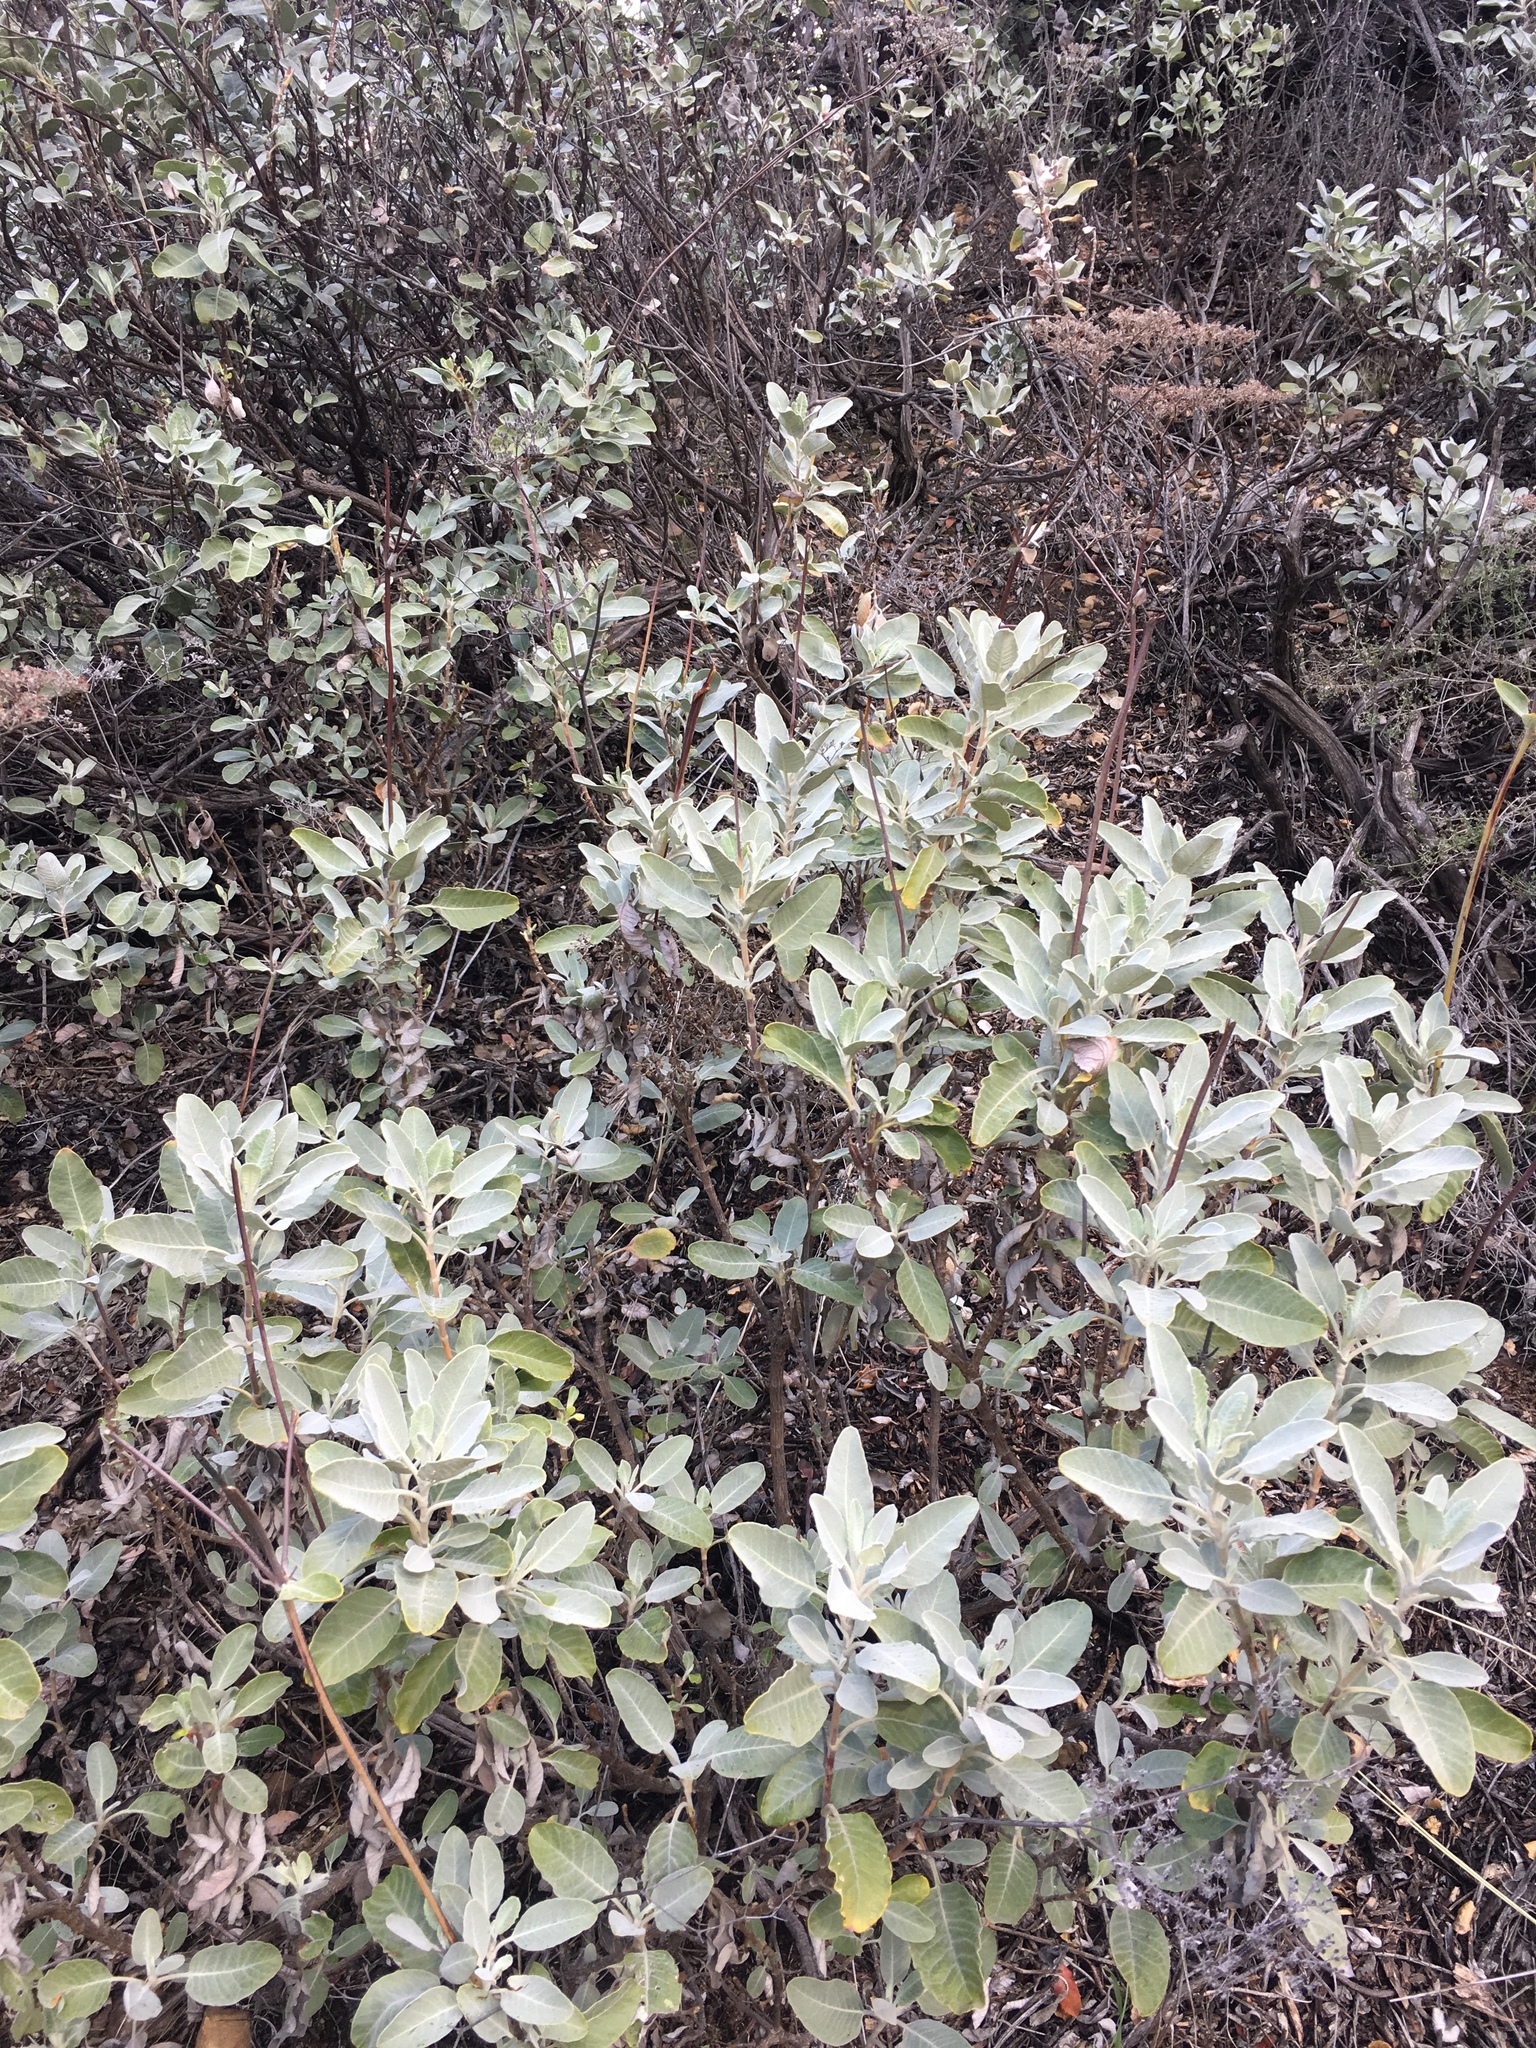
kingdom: Plantae
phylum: Tracheophyta
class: Magnoliopsida
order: Caryophyllales
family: Polygonaceae
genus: Eriogonum
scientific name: Eriogonum giganteum
